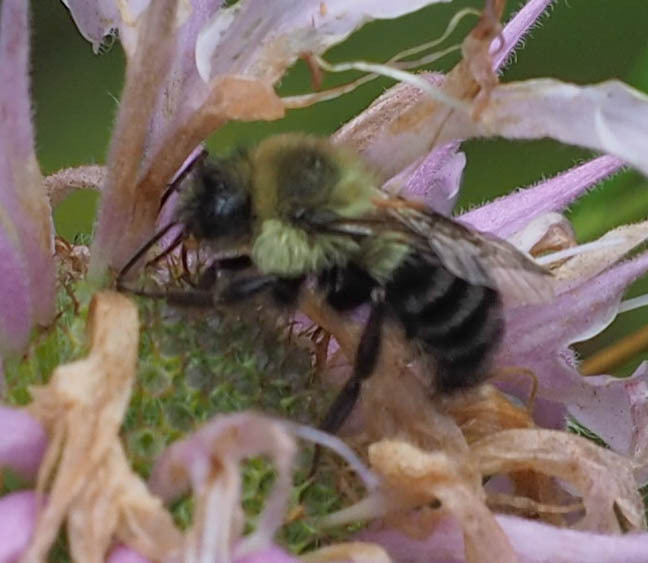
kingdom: Animalia
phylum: Arthropoda
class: Insecta
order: Hymenoptera
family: Apidae
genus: Bombus
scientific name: Bombus impatiens
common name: Common eastern bumble bee
